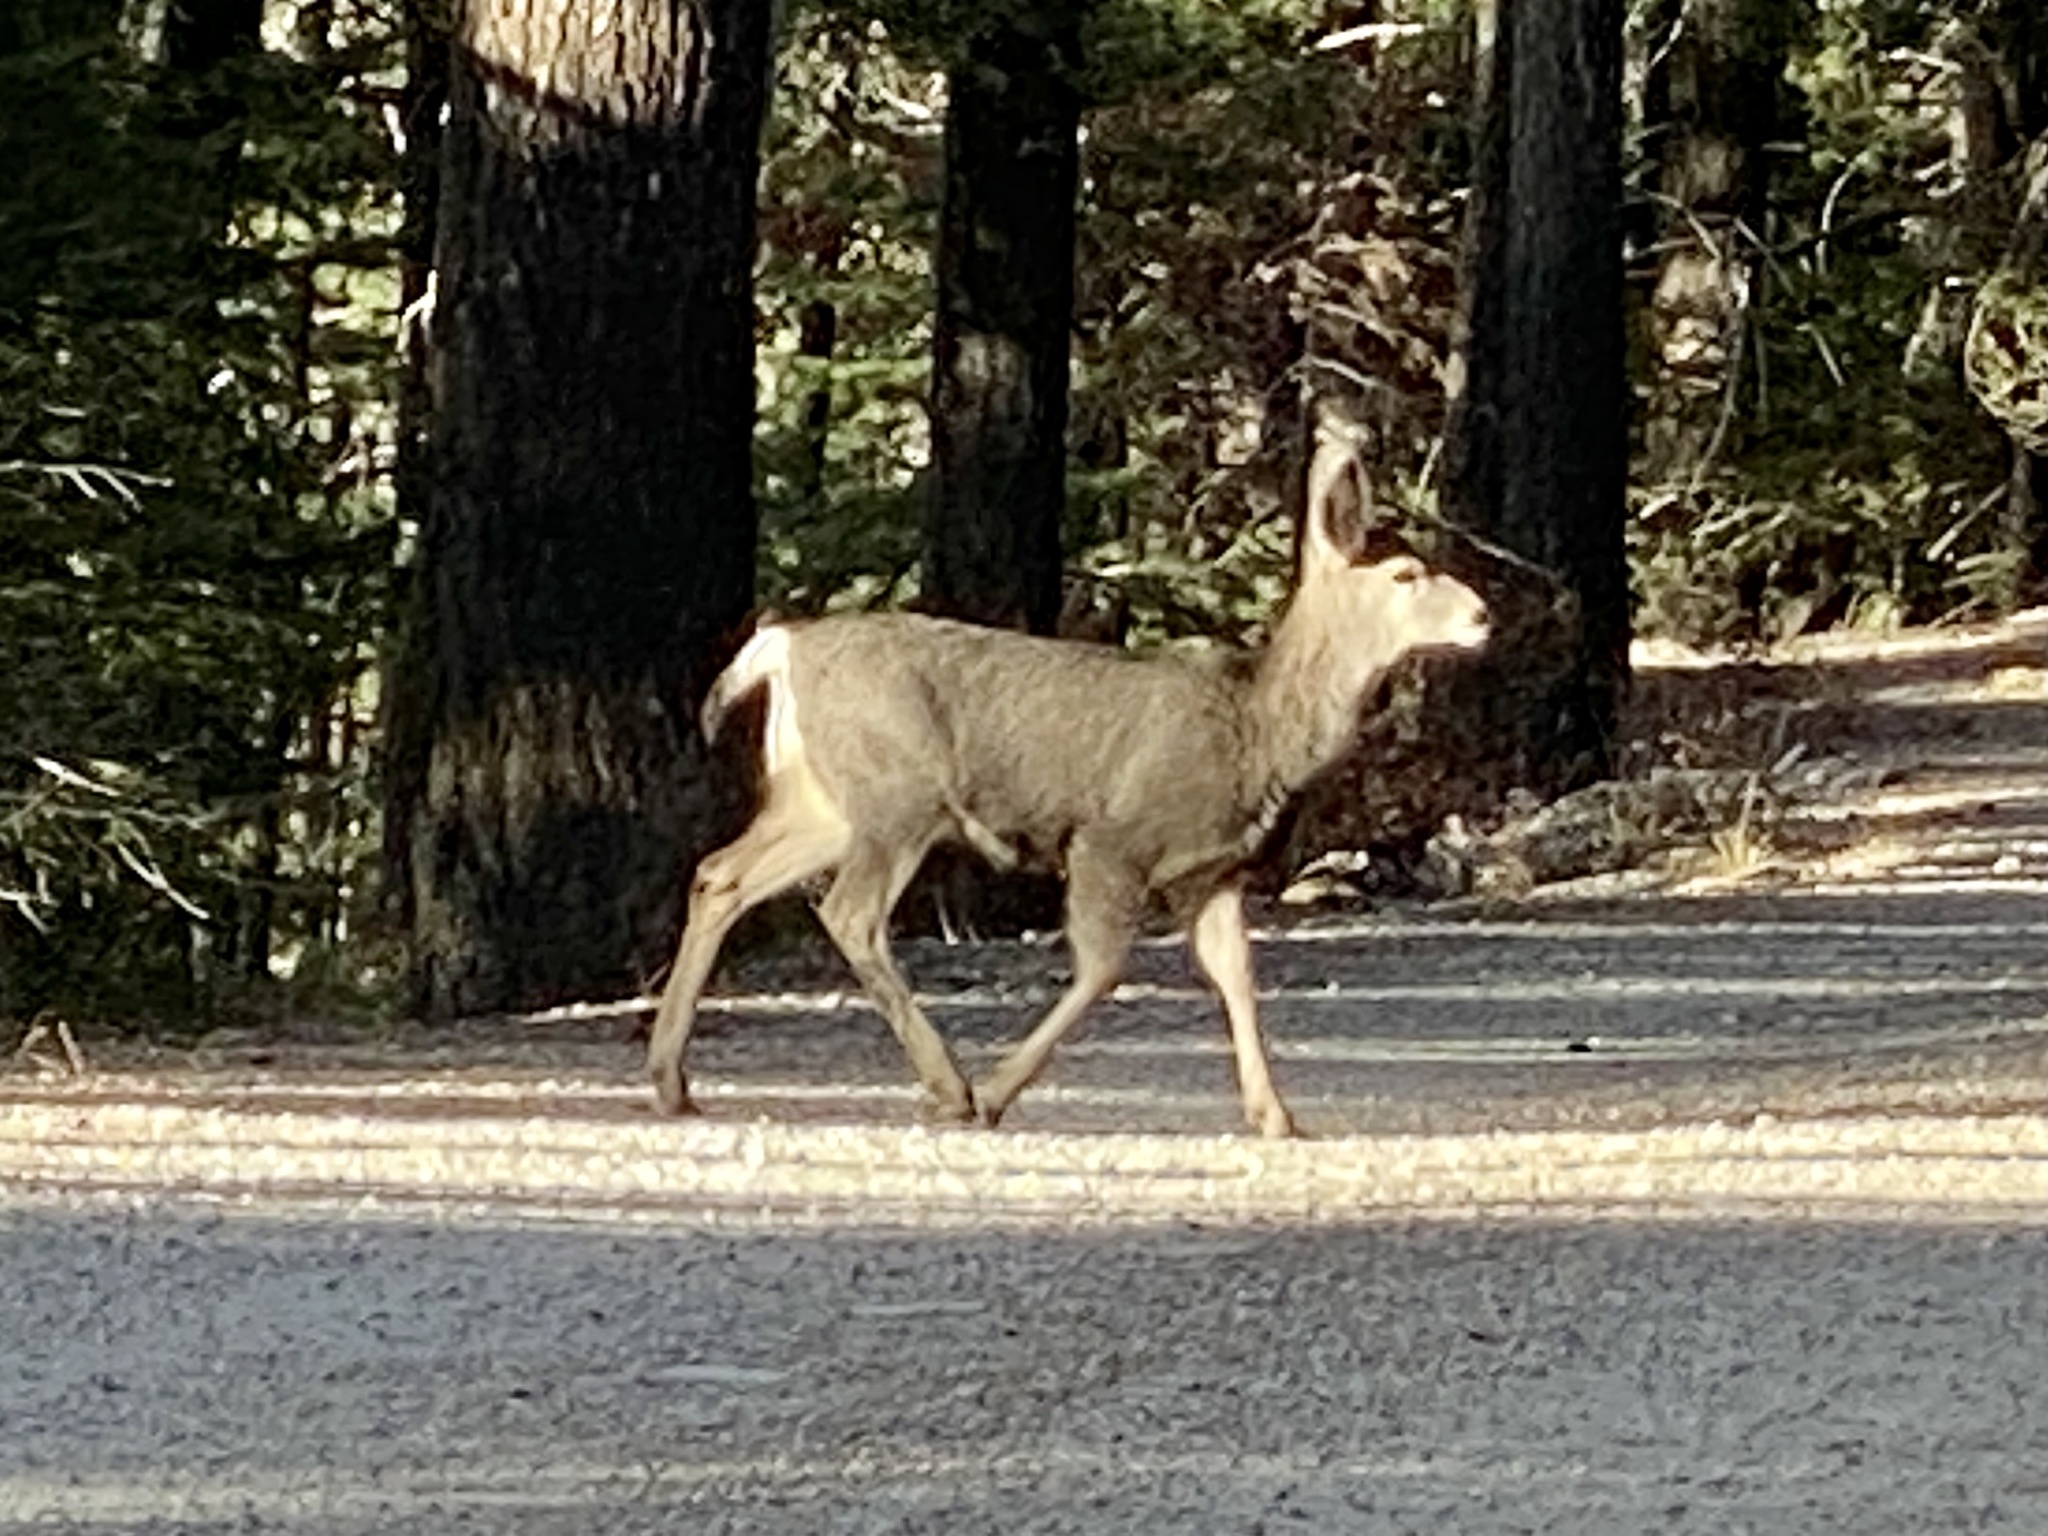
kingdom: Animalia
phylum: Chordata
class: Mammalia
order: Artiodactyla
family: Cervidae
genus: Odocoileus
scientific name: Odocoileus hemionus
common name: Mule deer
